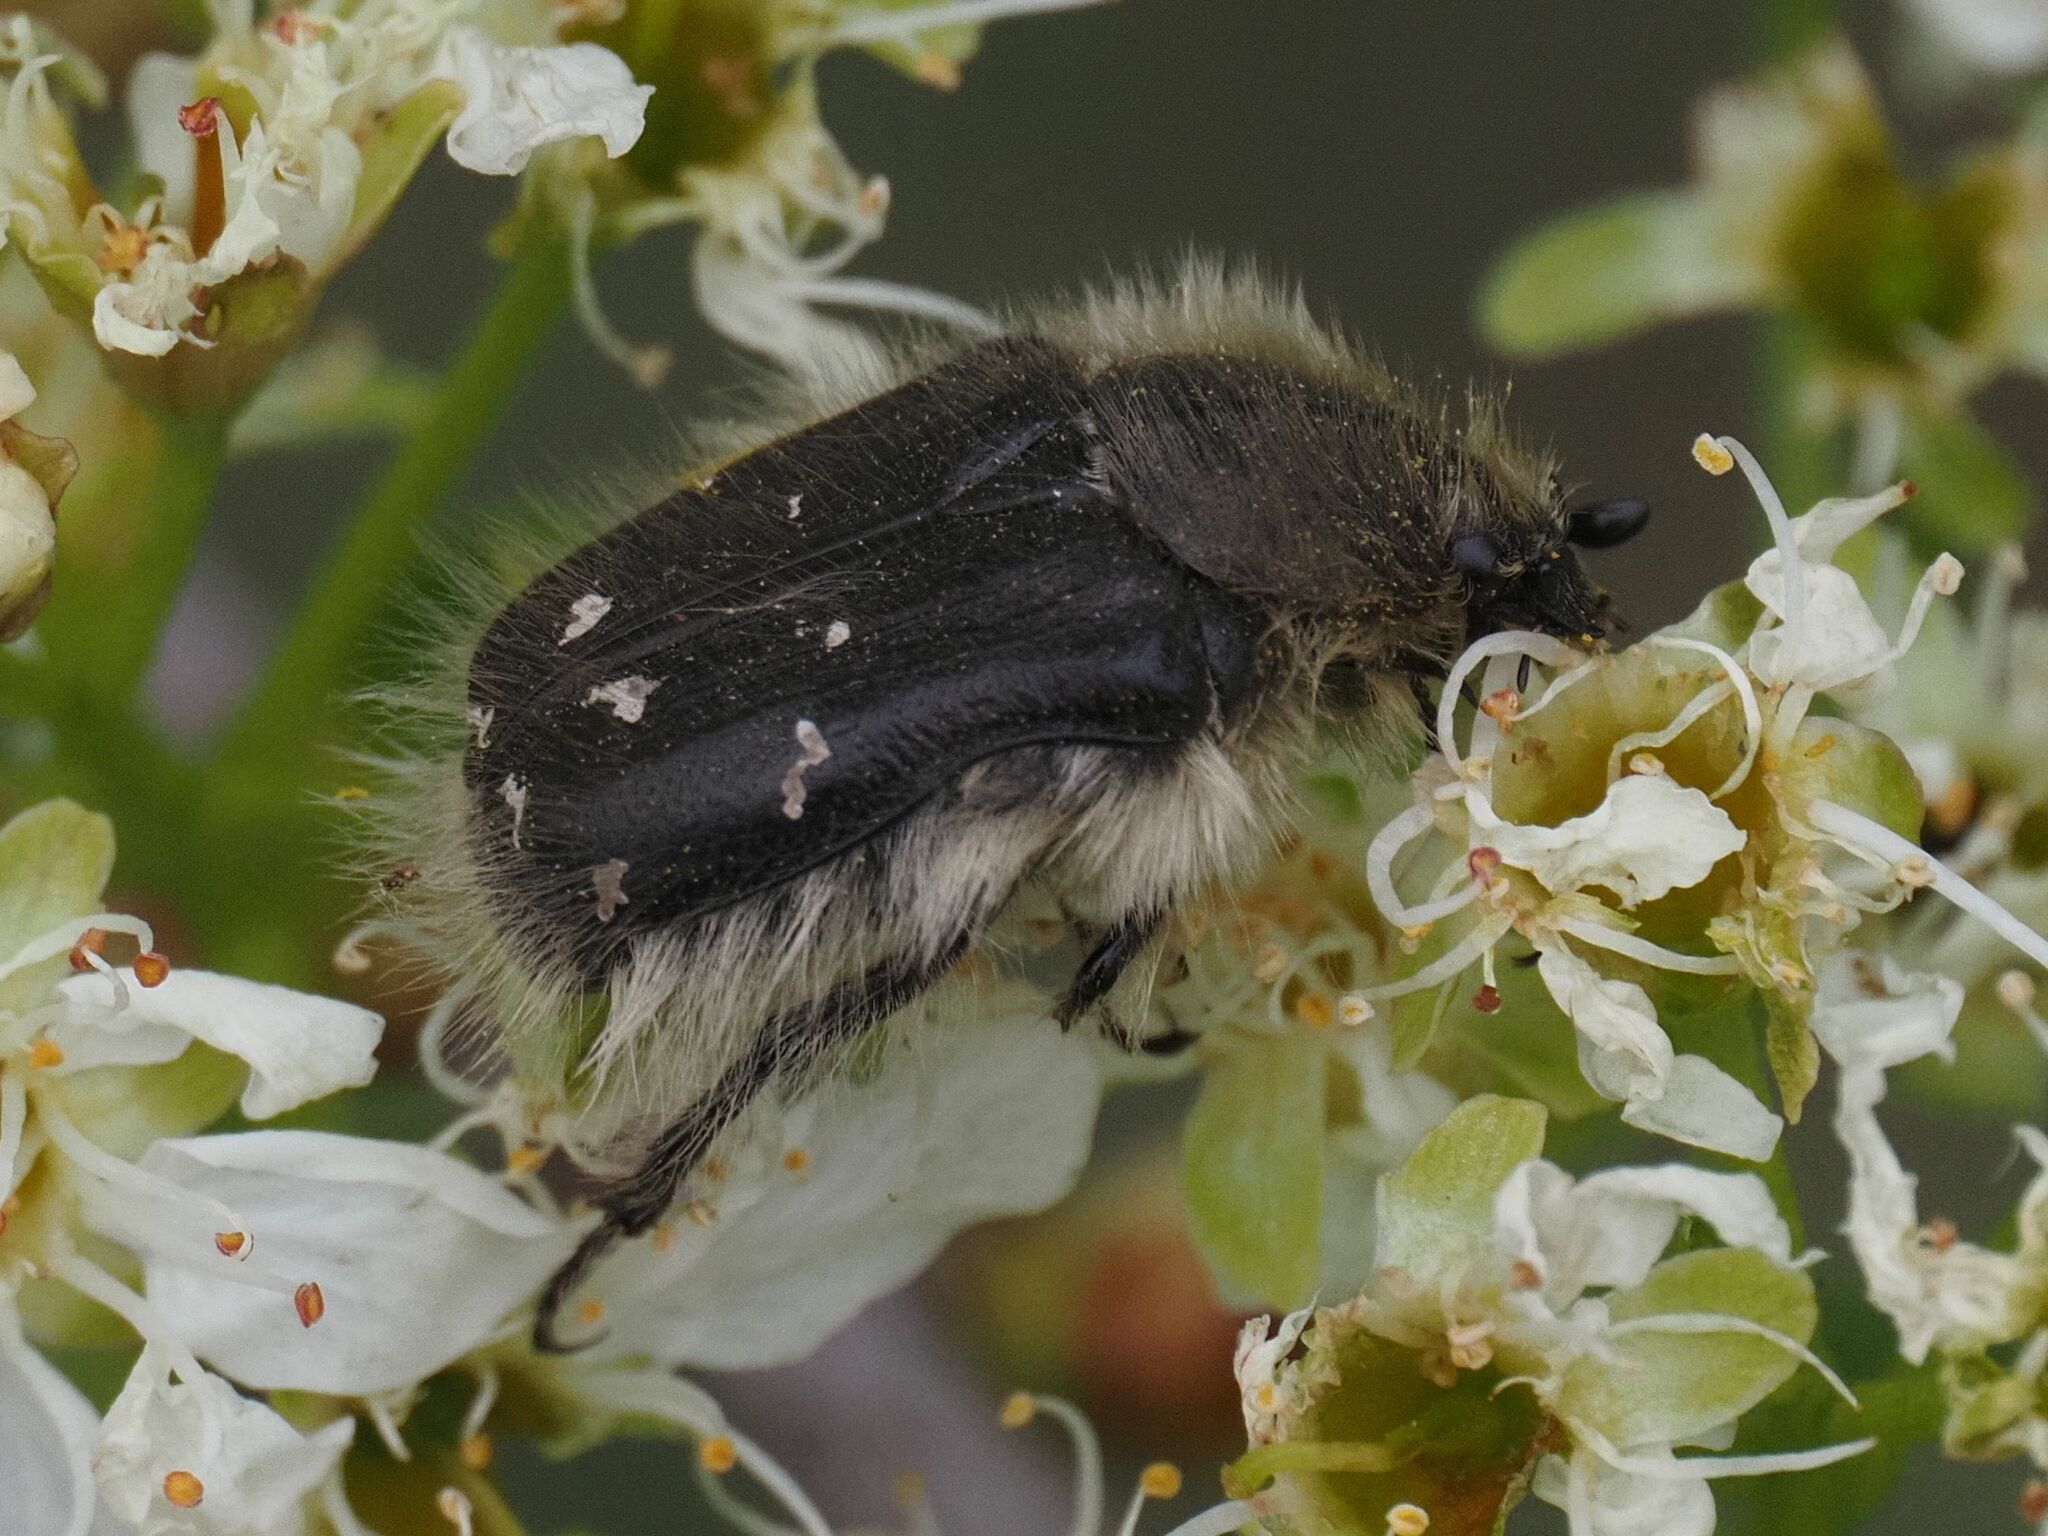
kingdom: Animalia
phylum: Arthropoda
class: Insecta
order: Coleoptera
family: Scarabaeidae
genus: Tropinota
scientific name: Tropinota hirta
